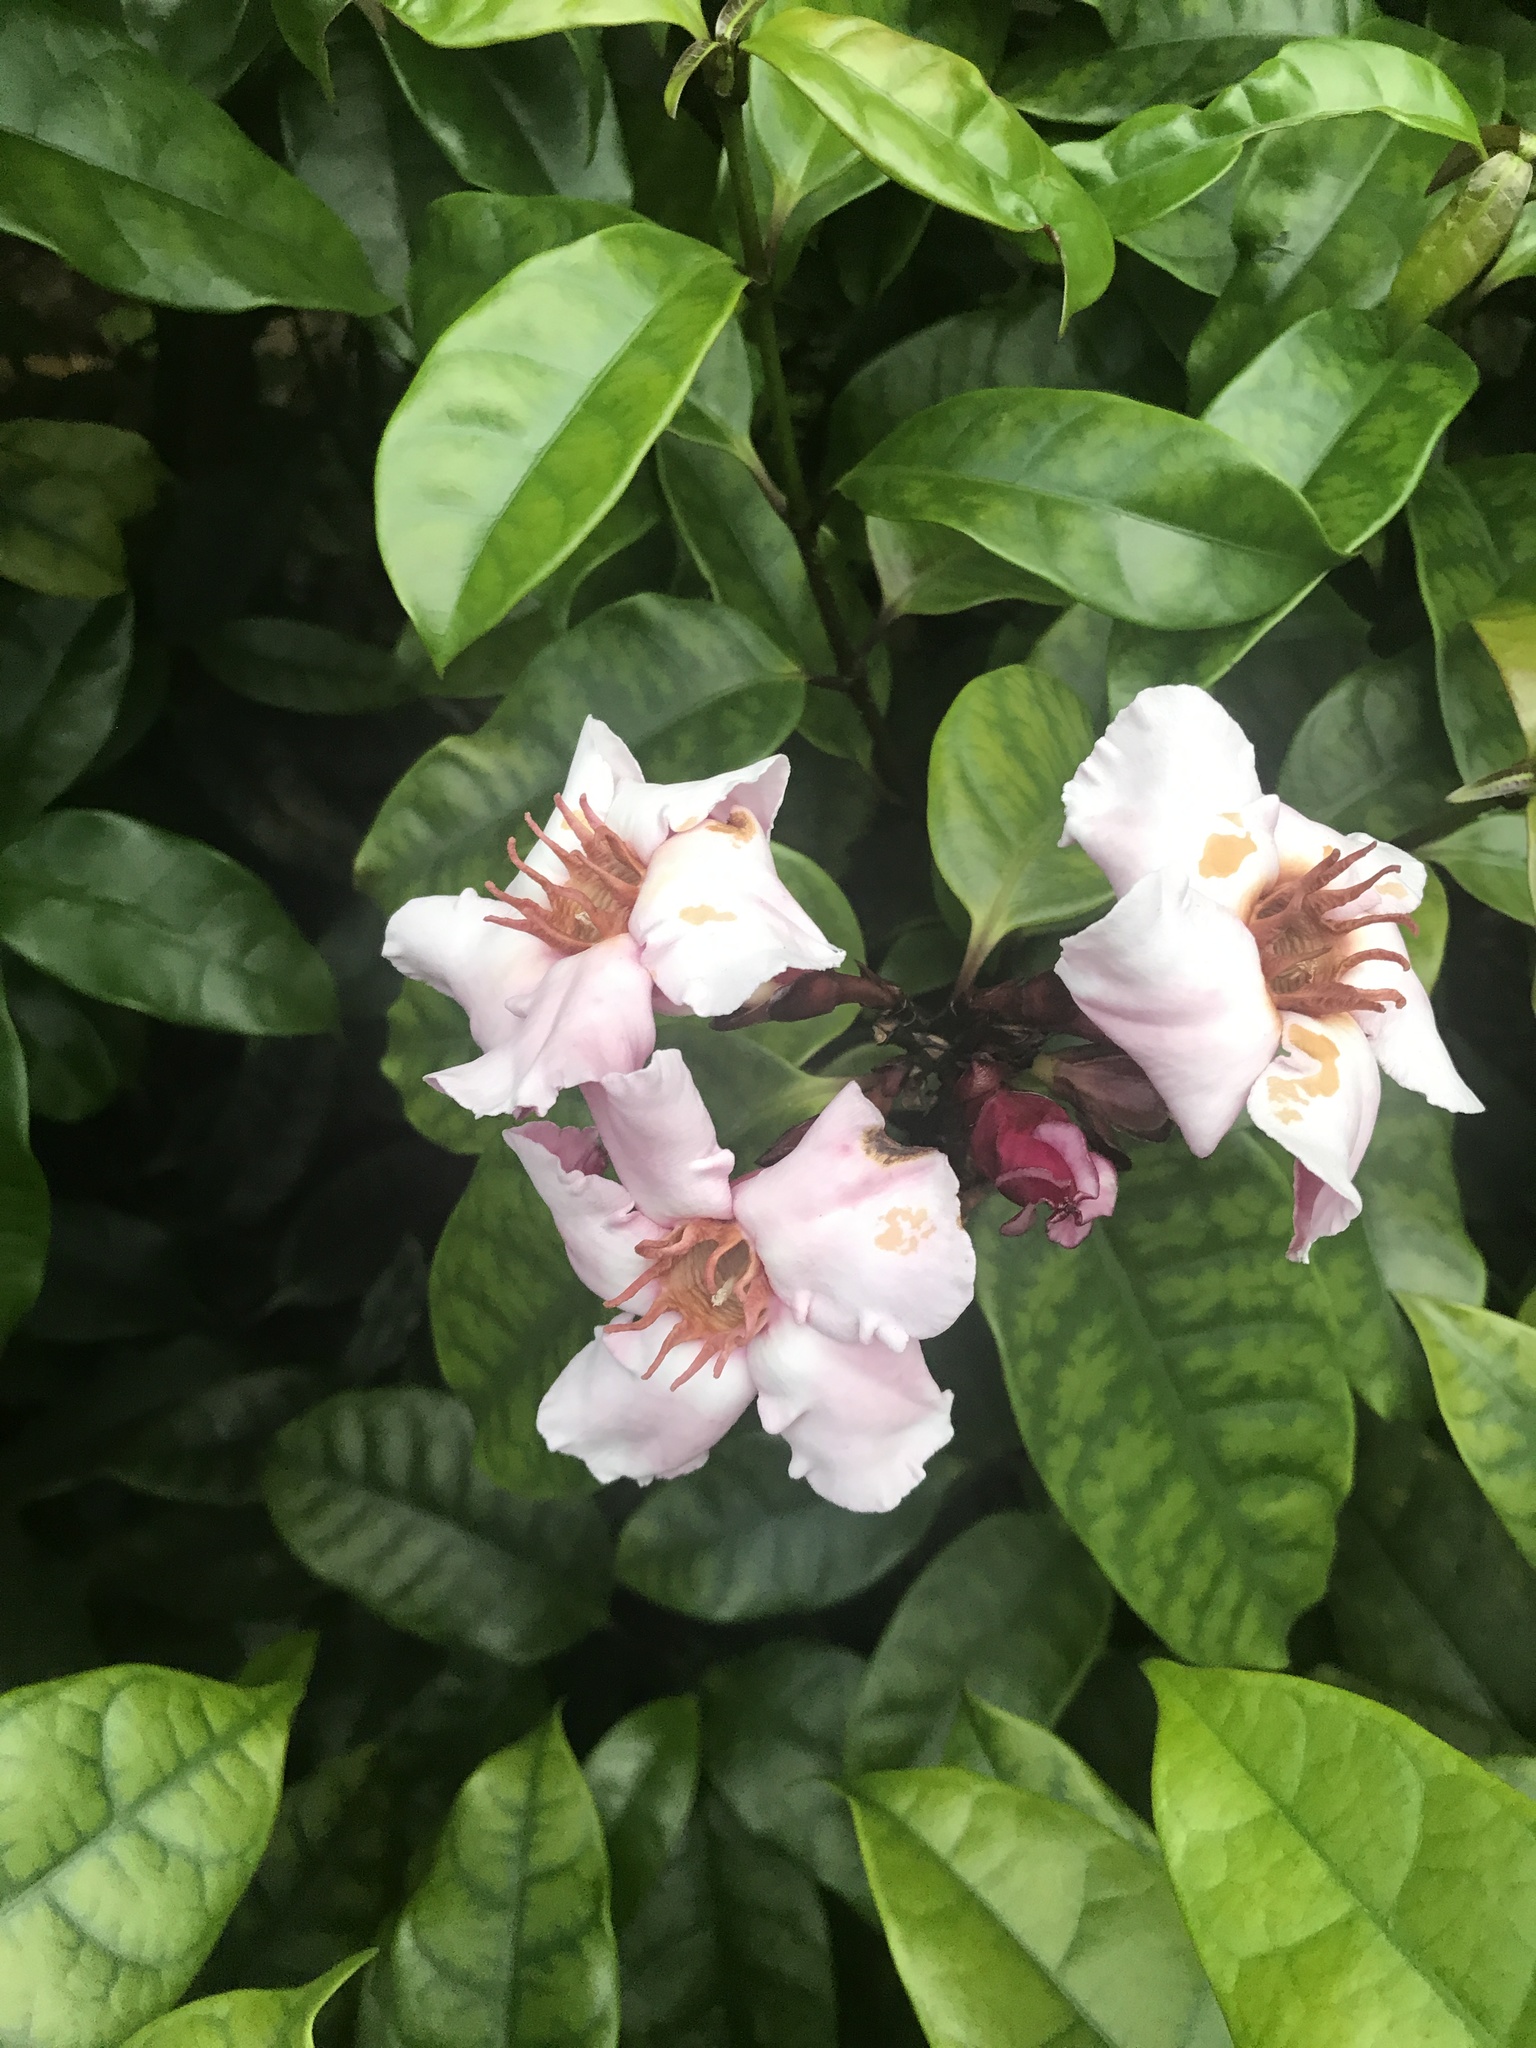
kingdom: Plantae
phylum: Tracheophyta
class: Magnoliopsida
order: Gentianales
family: Apocynaceae
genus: Strophanthus
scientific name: Strophanthus gratus
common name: Climbing-oleander
